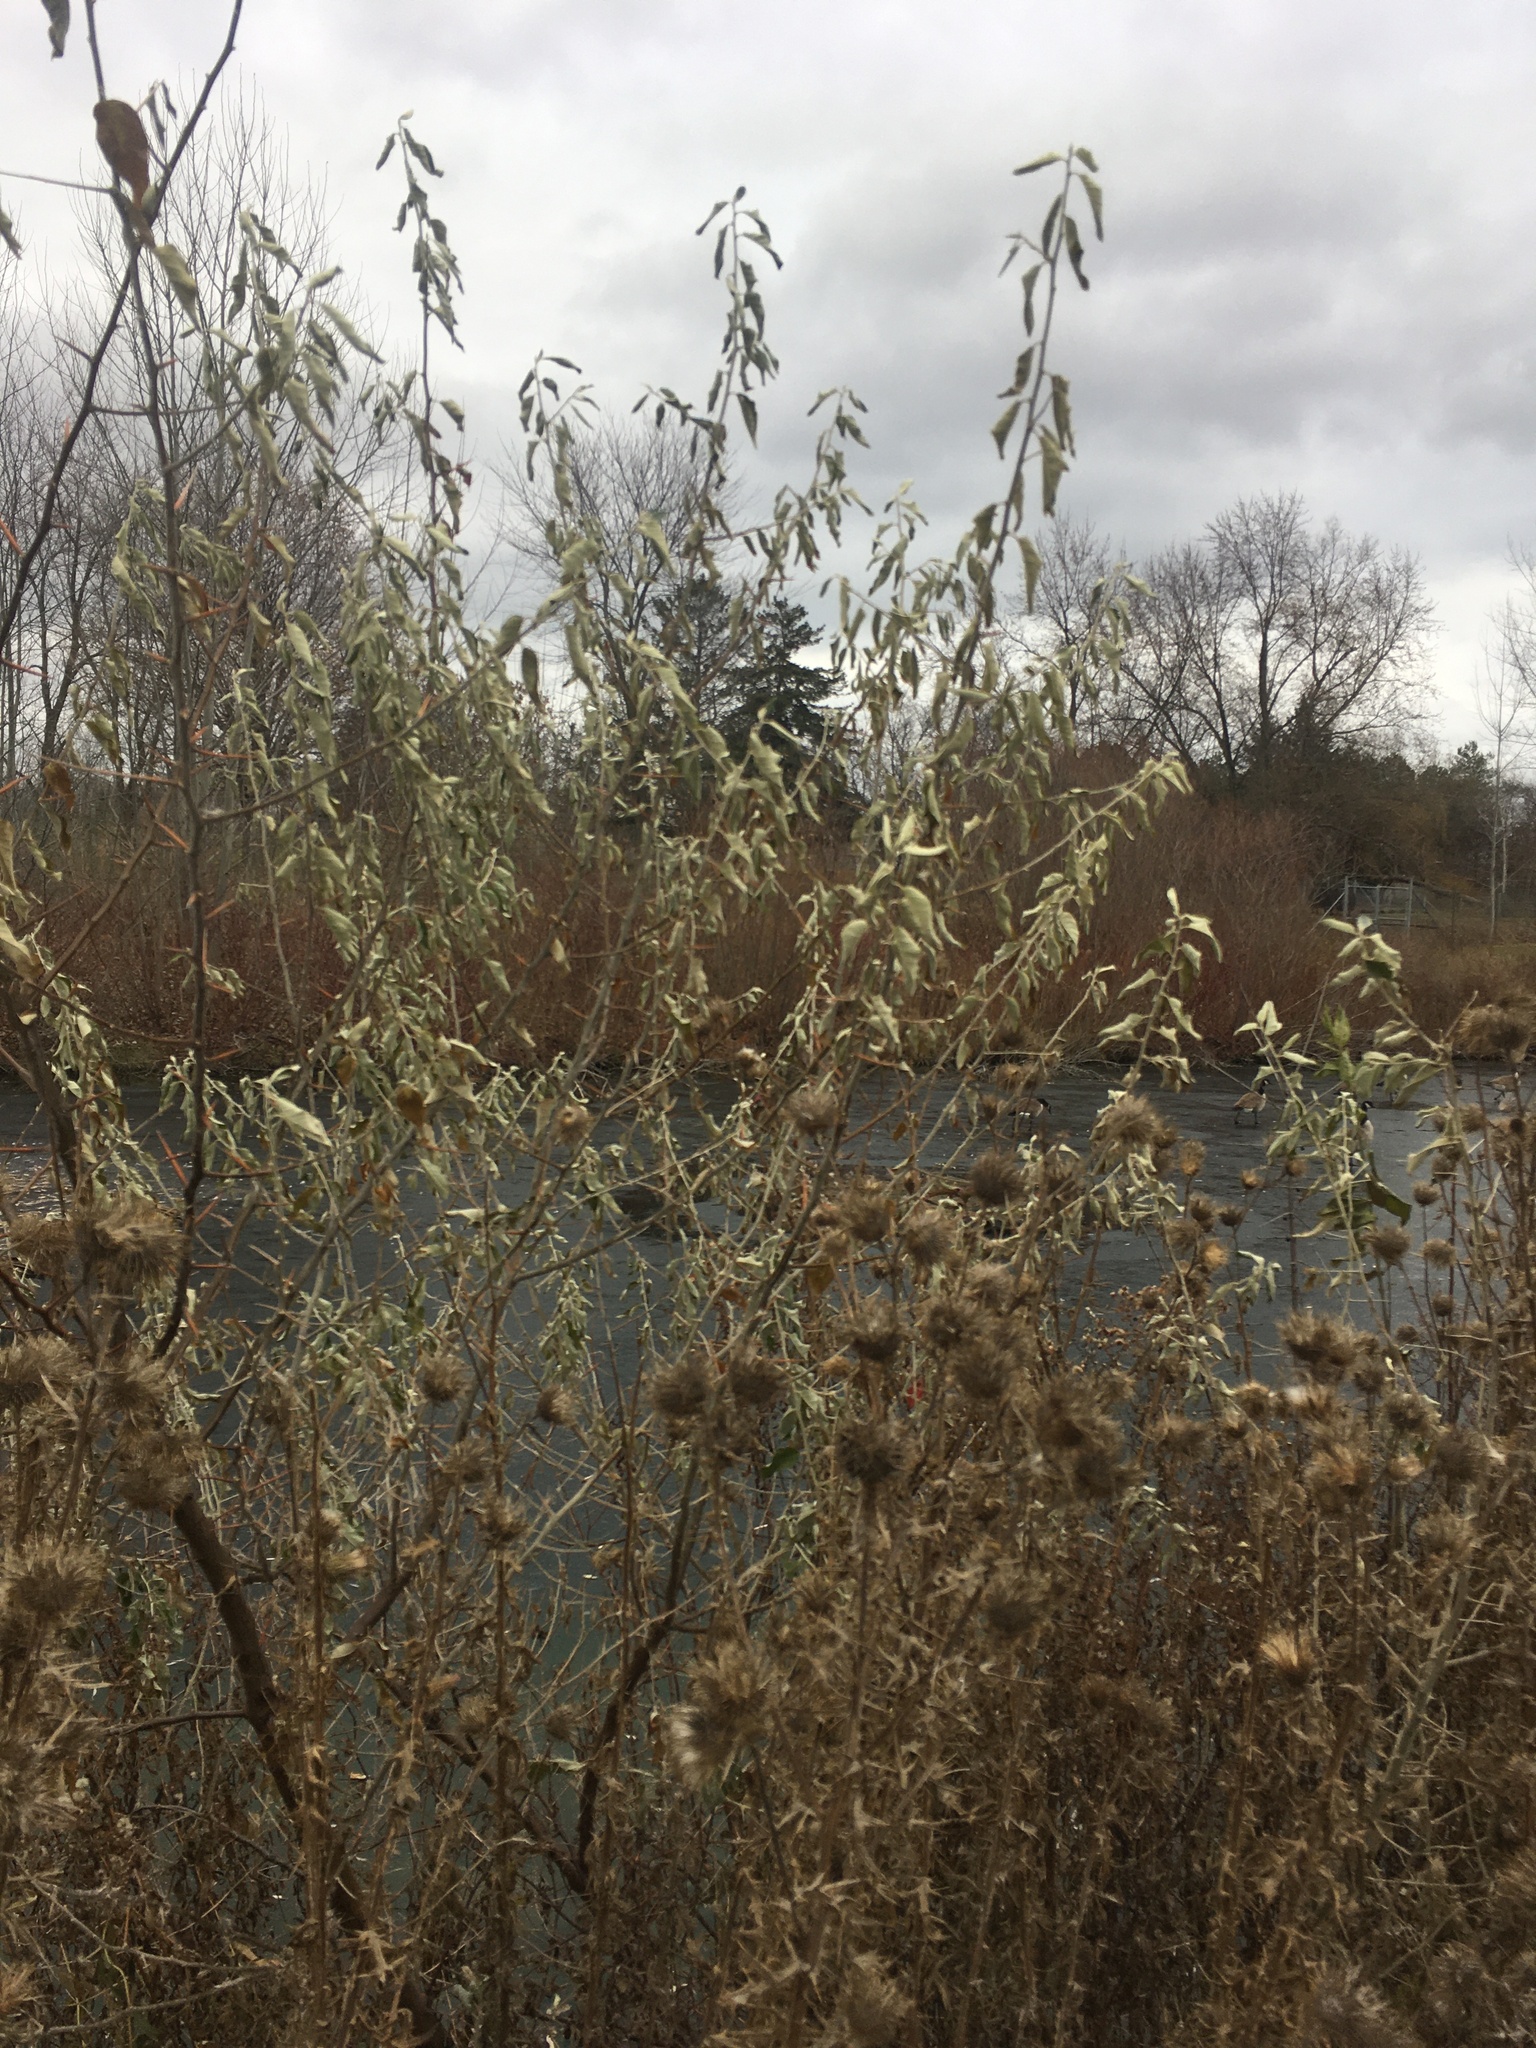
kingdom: Plantae
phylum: Tracheophyta
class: Magnoliopsida
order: Rosales
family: Elaeagnaceae
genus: Elaeagnus
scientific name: Elaeagnus angustifolia
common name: Russian olive
